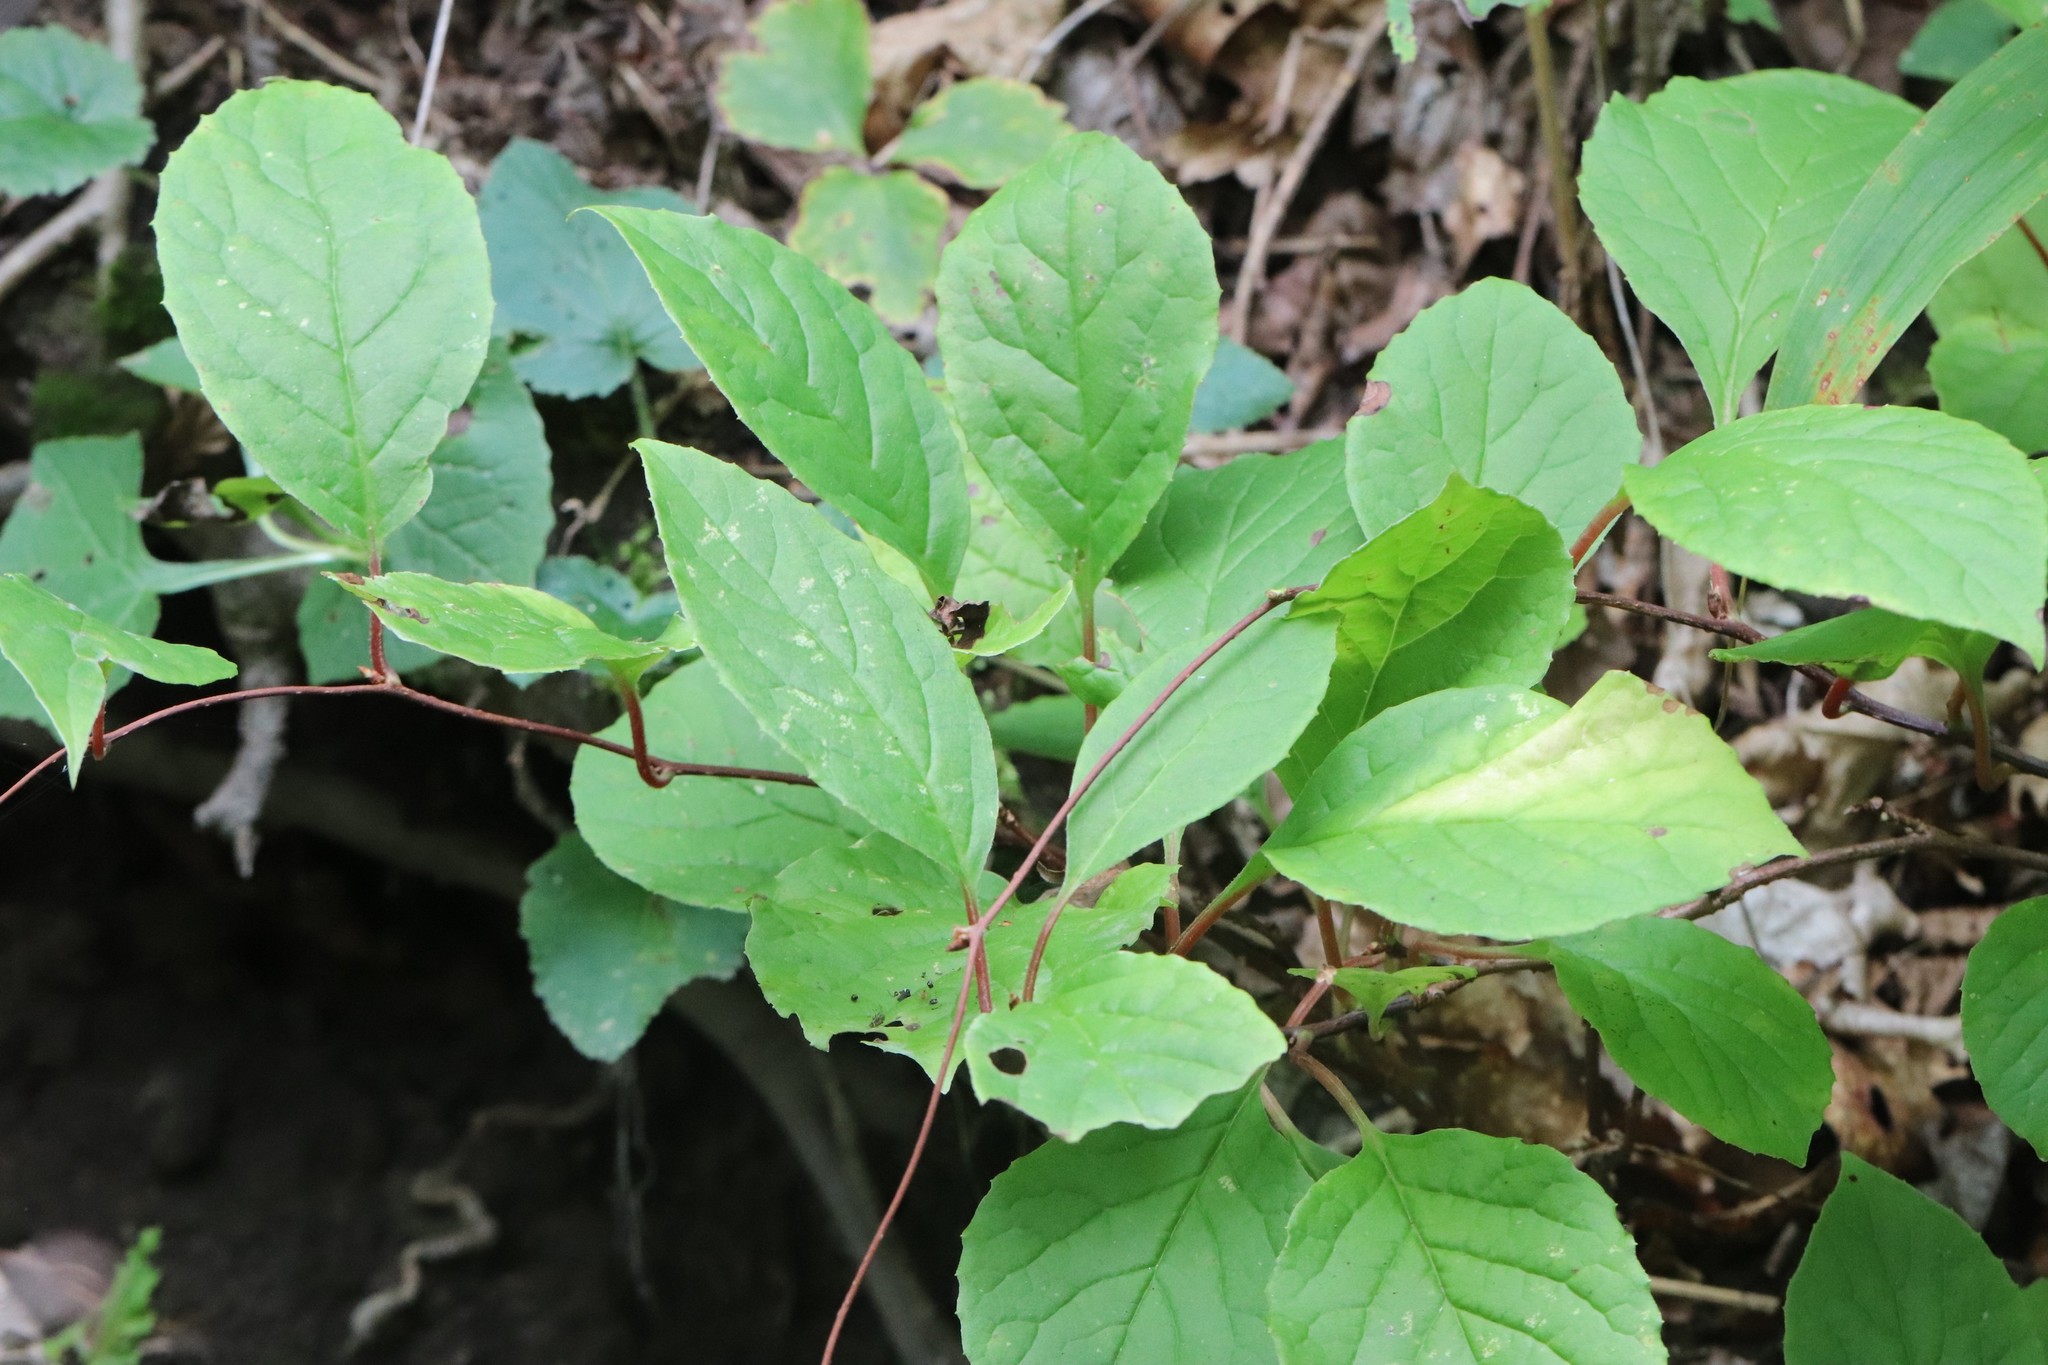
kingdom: Plantae
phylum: Tracheophyta
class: Magnoliopsida
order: Austrobaileyales
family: Schisandraceae
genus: Schisandra
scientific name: Schisandra chinensis
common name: Magnolia-vine
